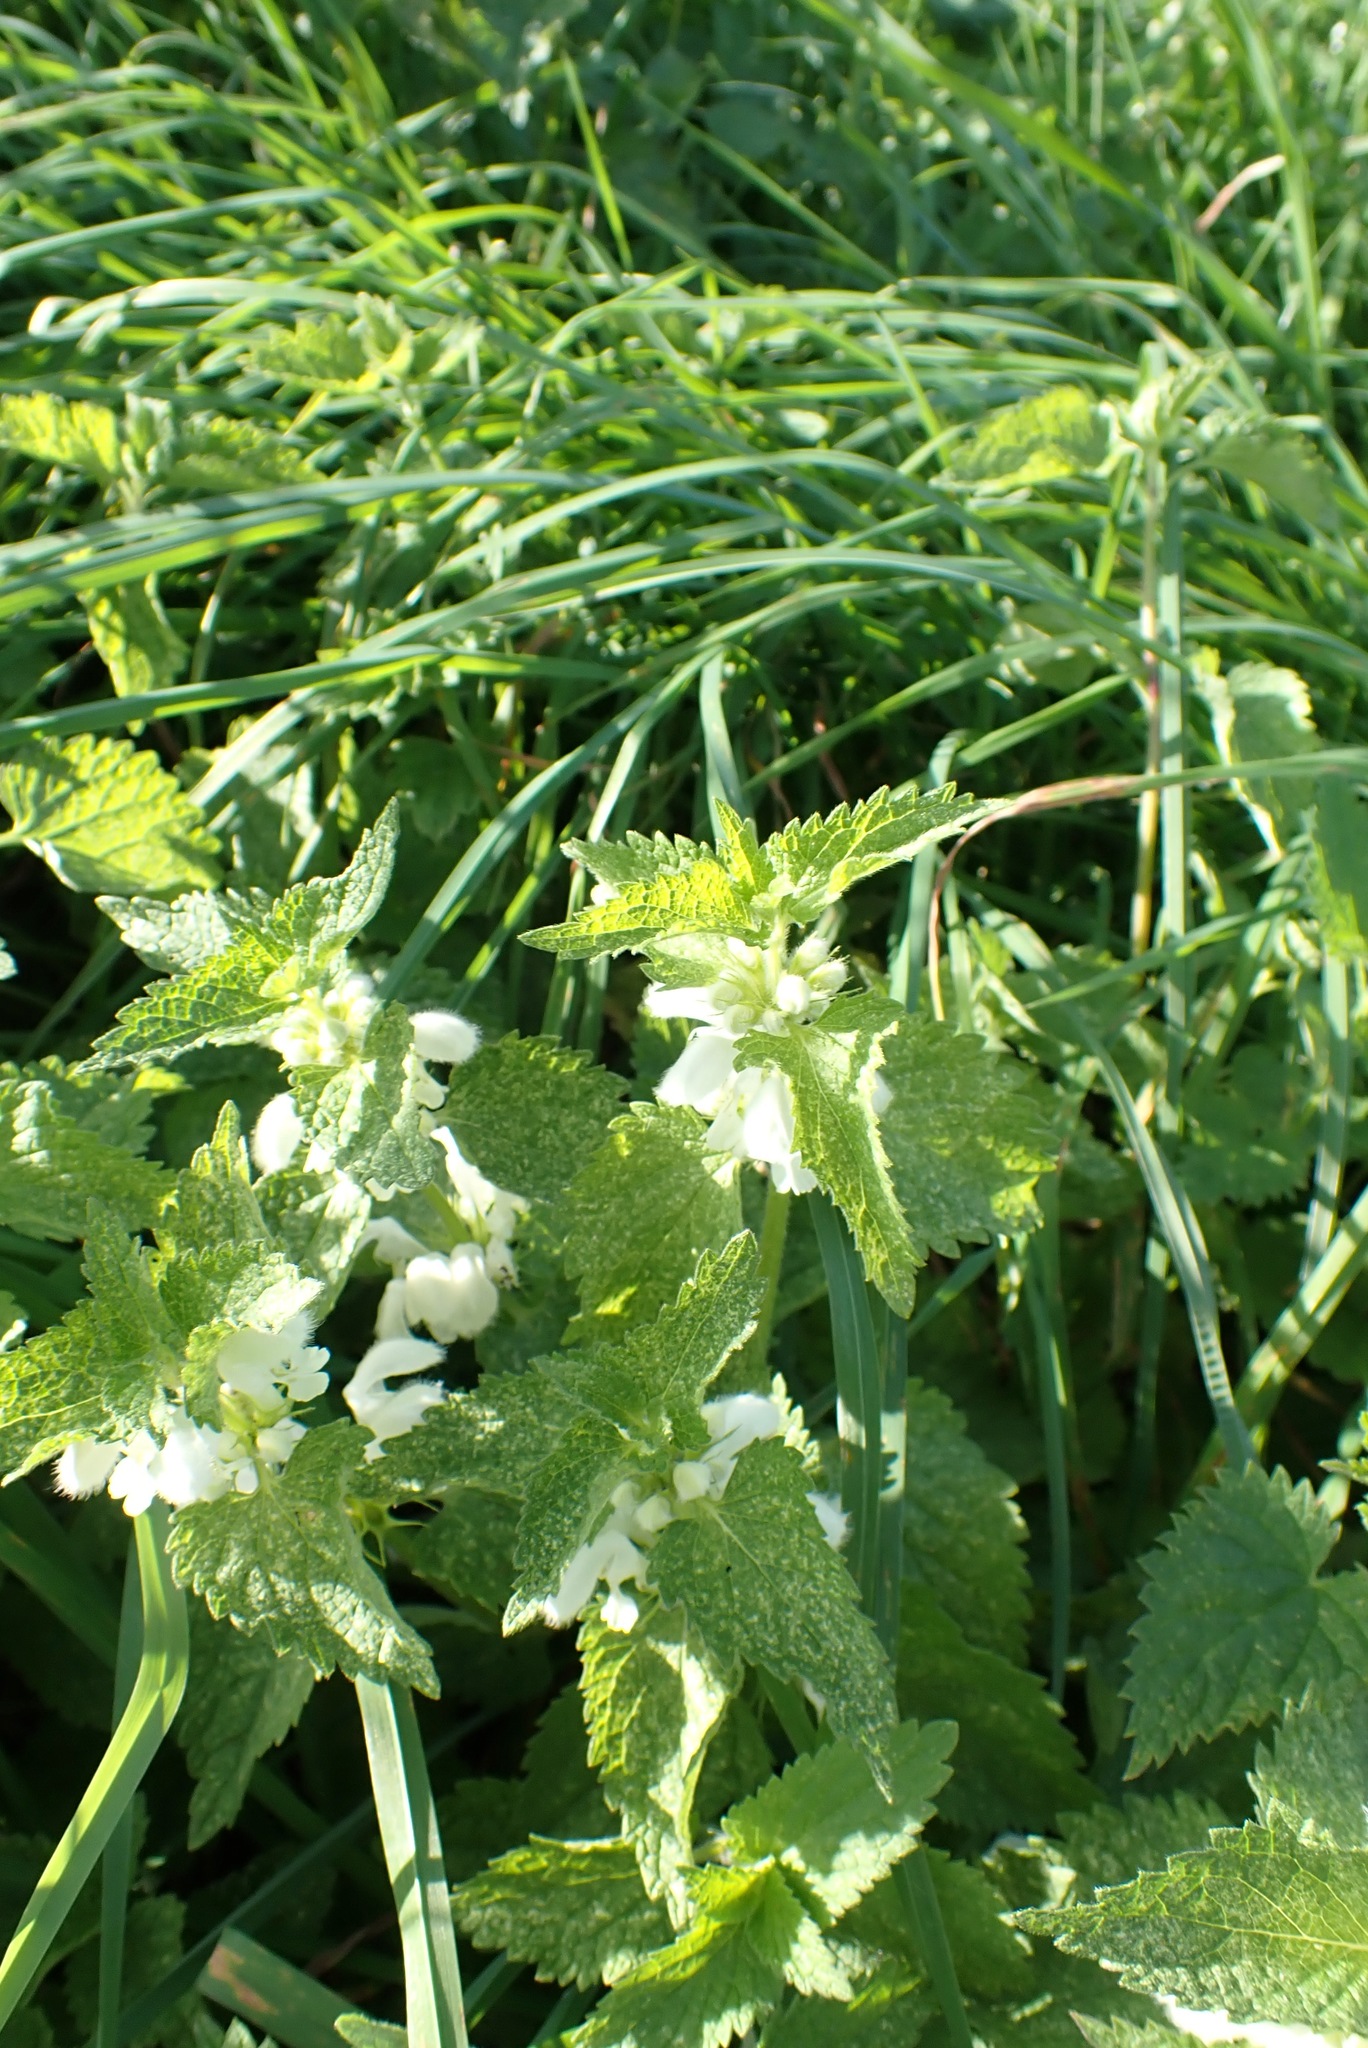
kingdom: Plantae
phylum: Tracheophyta
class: Magnoliopsida
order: Lamiales
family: Lamiaceae
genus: Lamium
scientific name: Lamium album
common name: White dead-nettle
